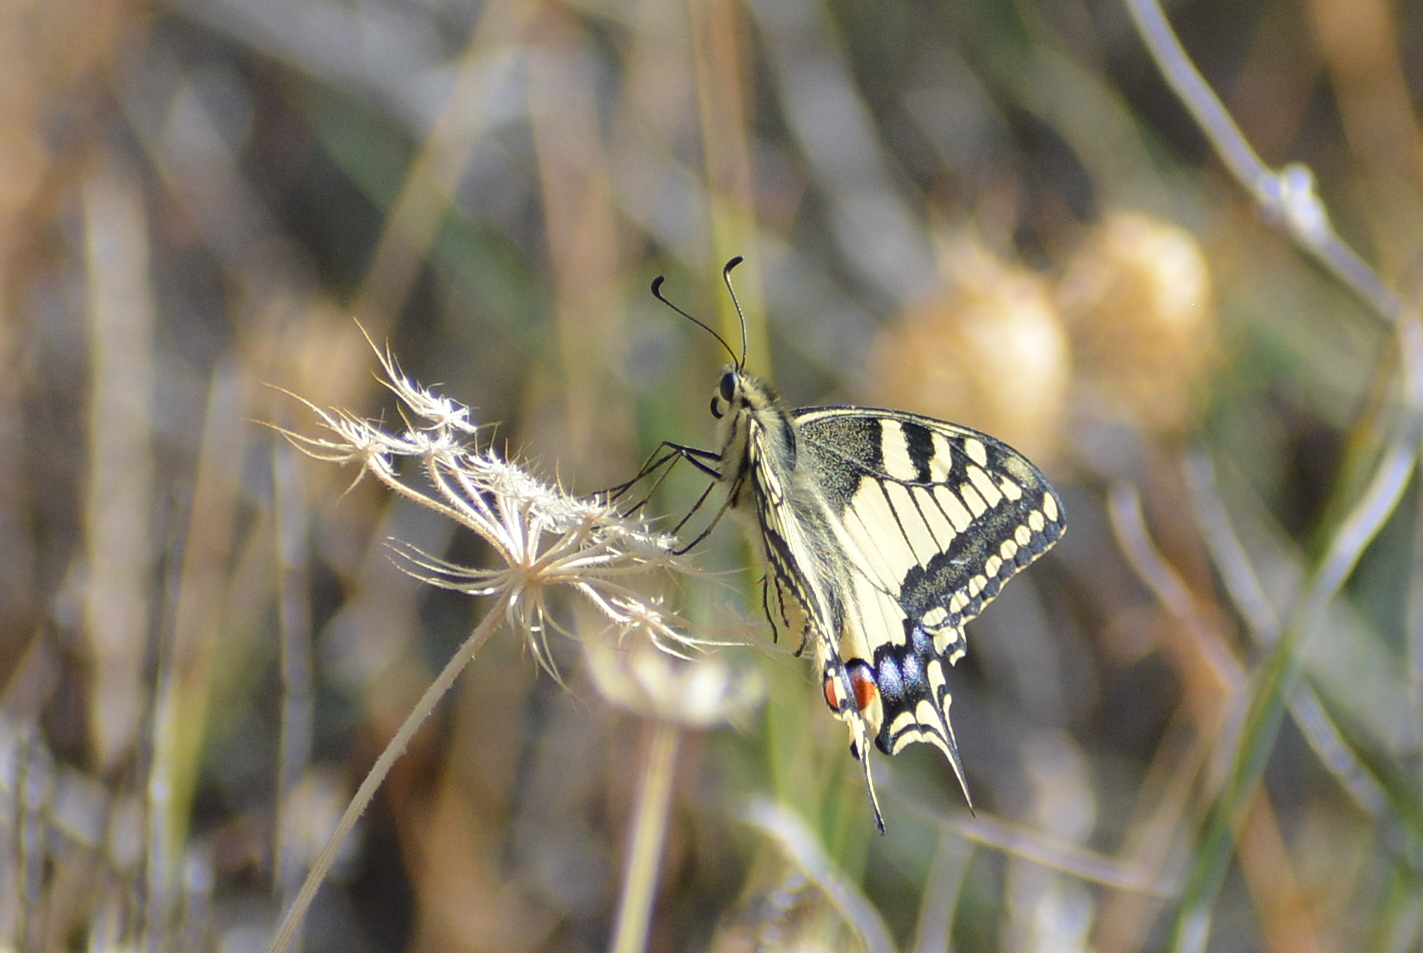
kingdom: Animalia
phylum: Arthropoda
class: Insecta
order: Lepidoptera
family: Papilionidae
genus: Papilio
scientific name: Papilio machaon
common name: Swallowtail
